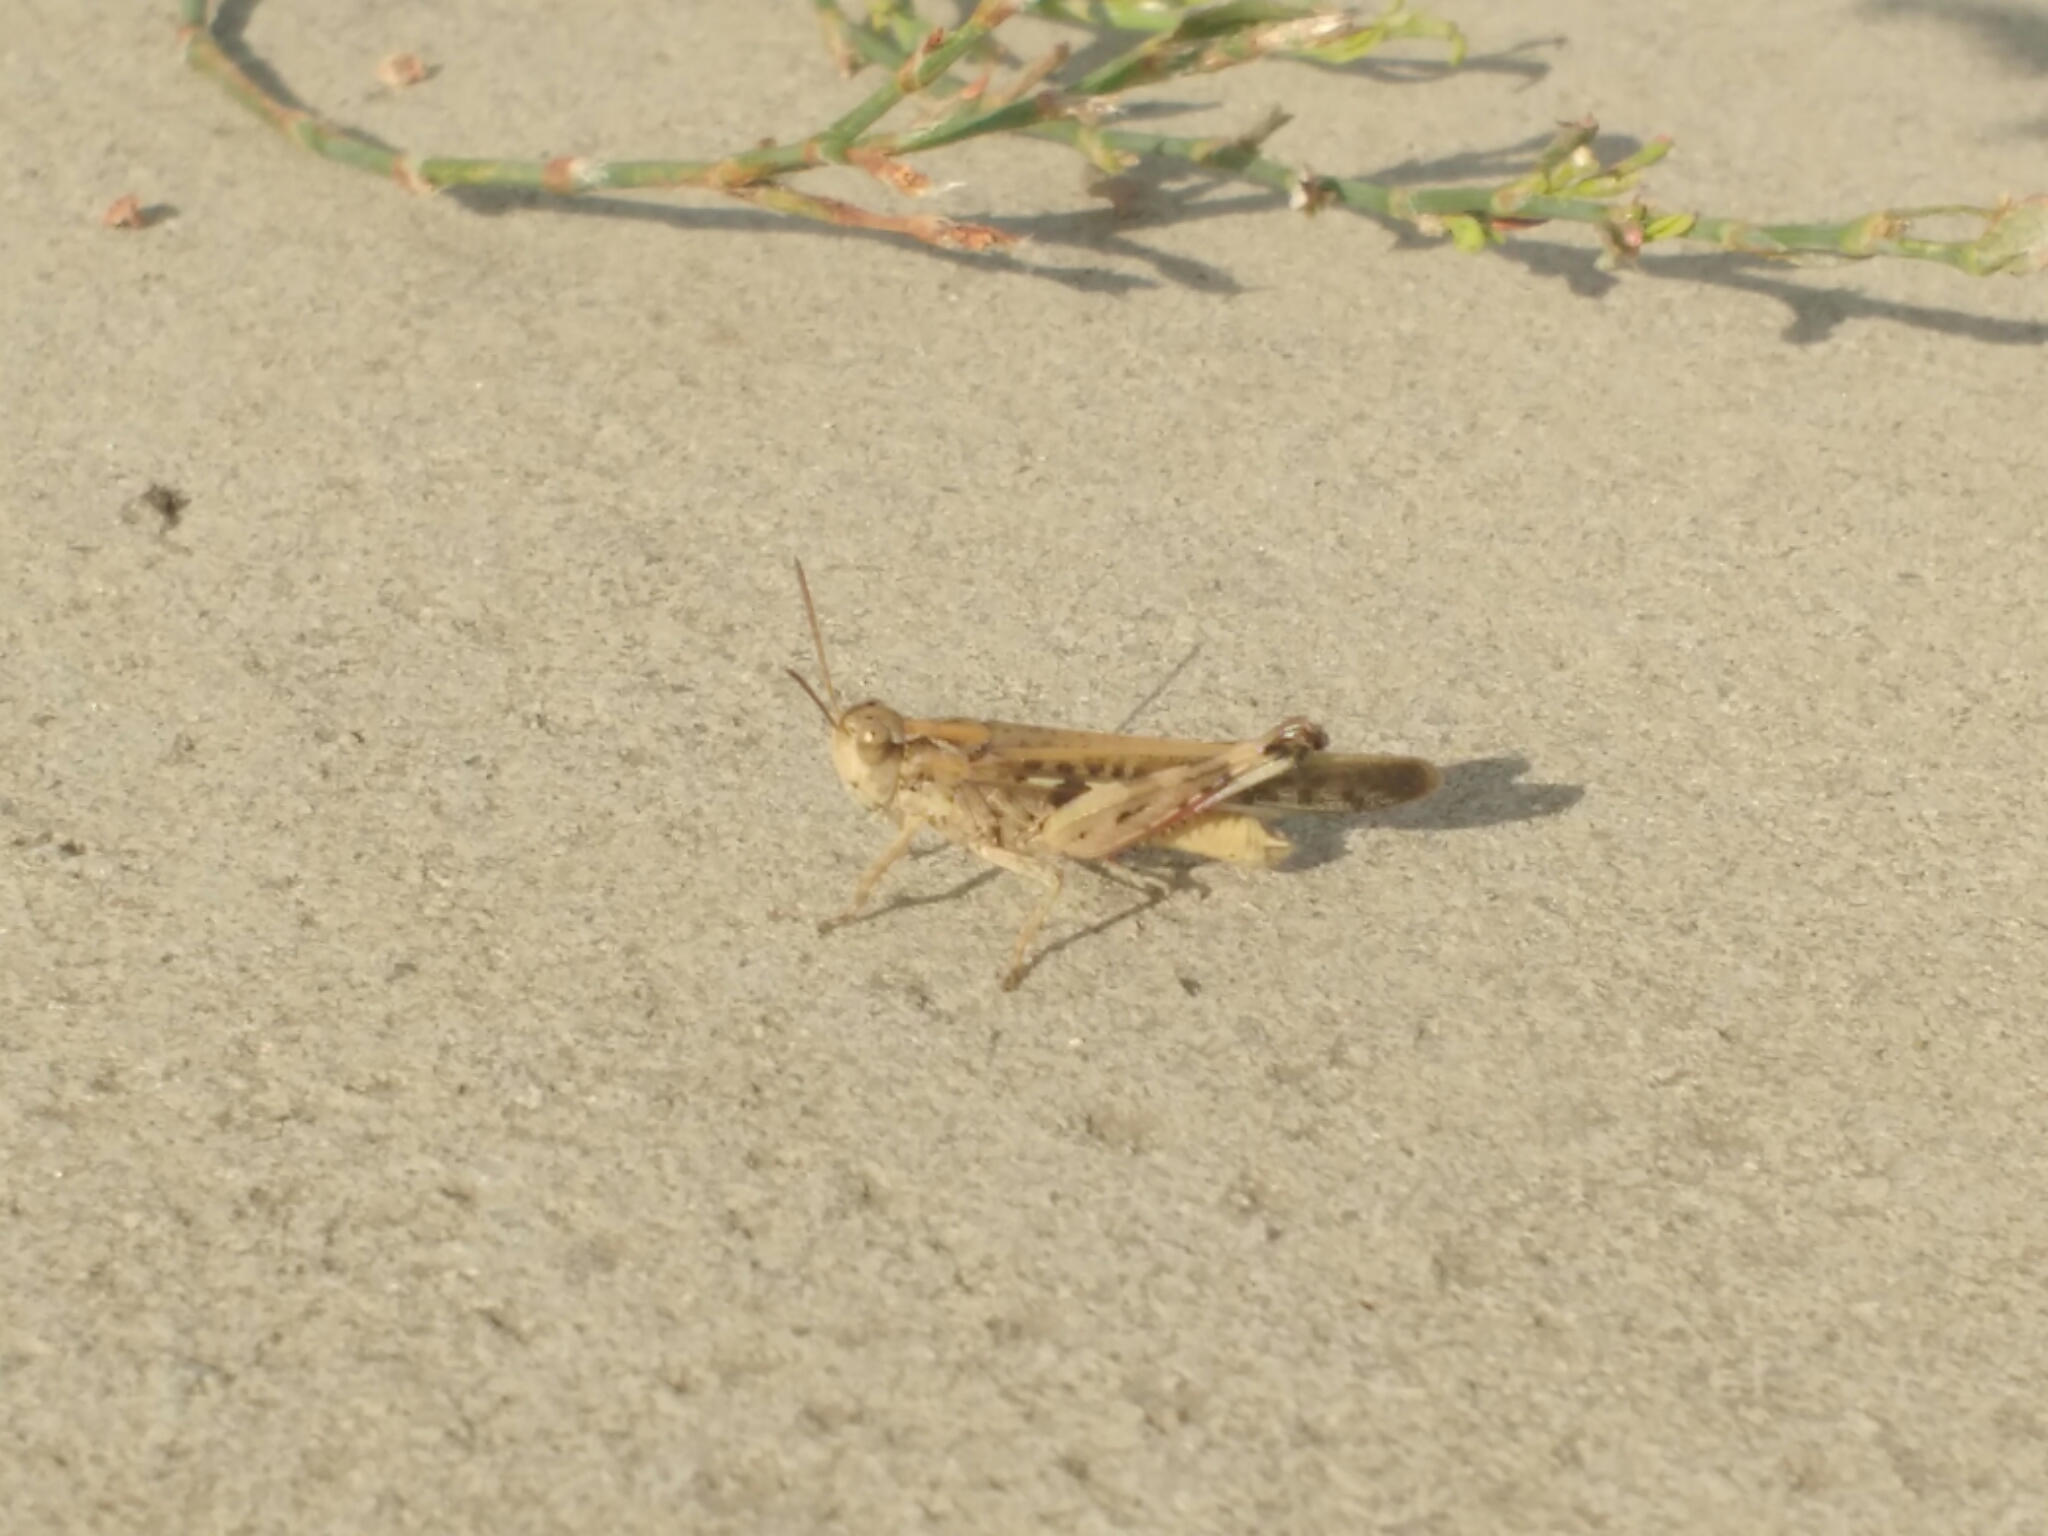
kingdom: Animalia
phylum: Arthropoda
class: Insecta
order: Orthoptera
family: Acrididae
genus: Aiolopus
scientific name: Aiolopus thalassinus
